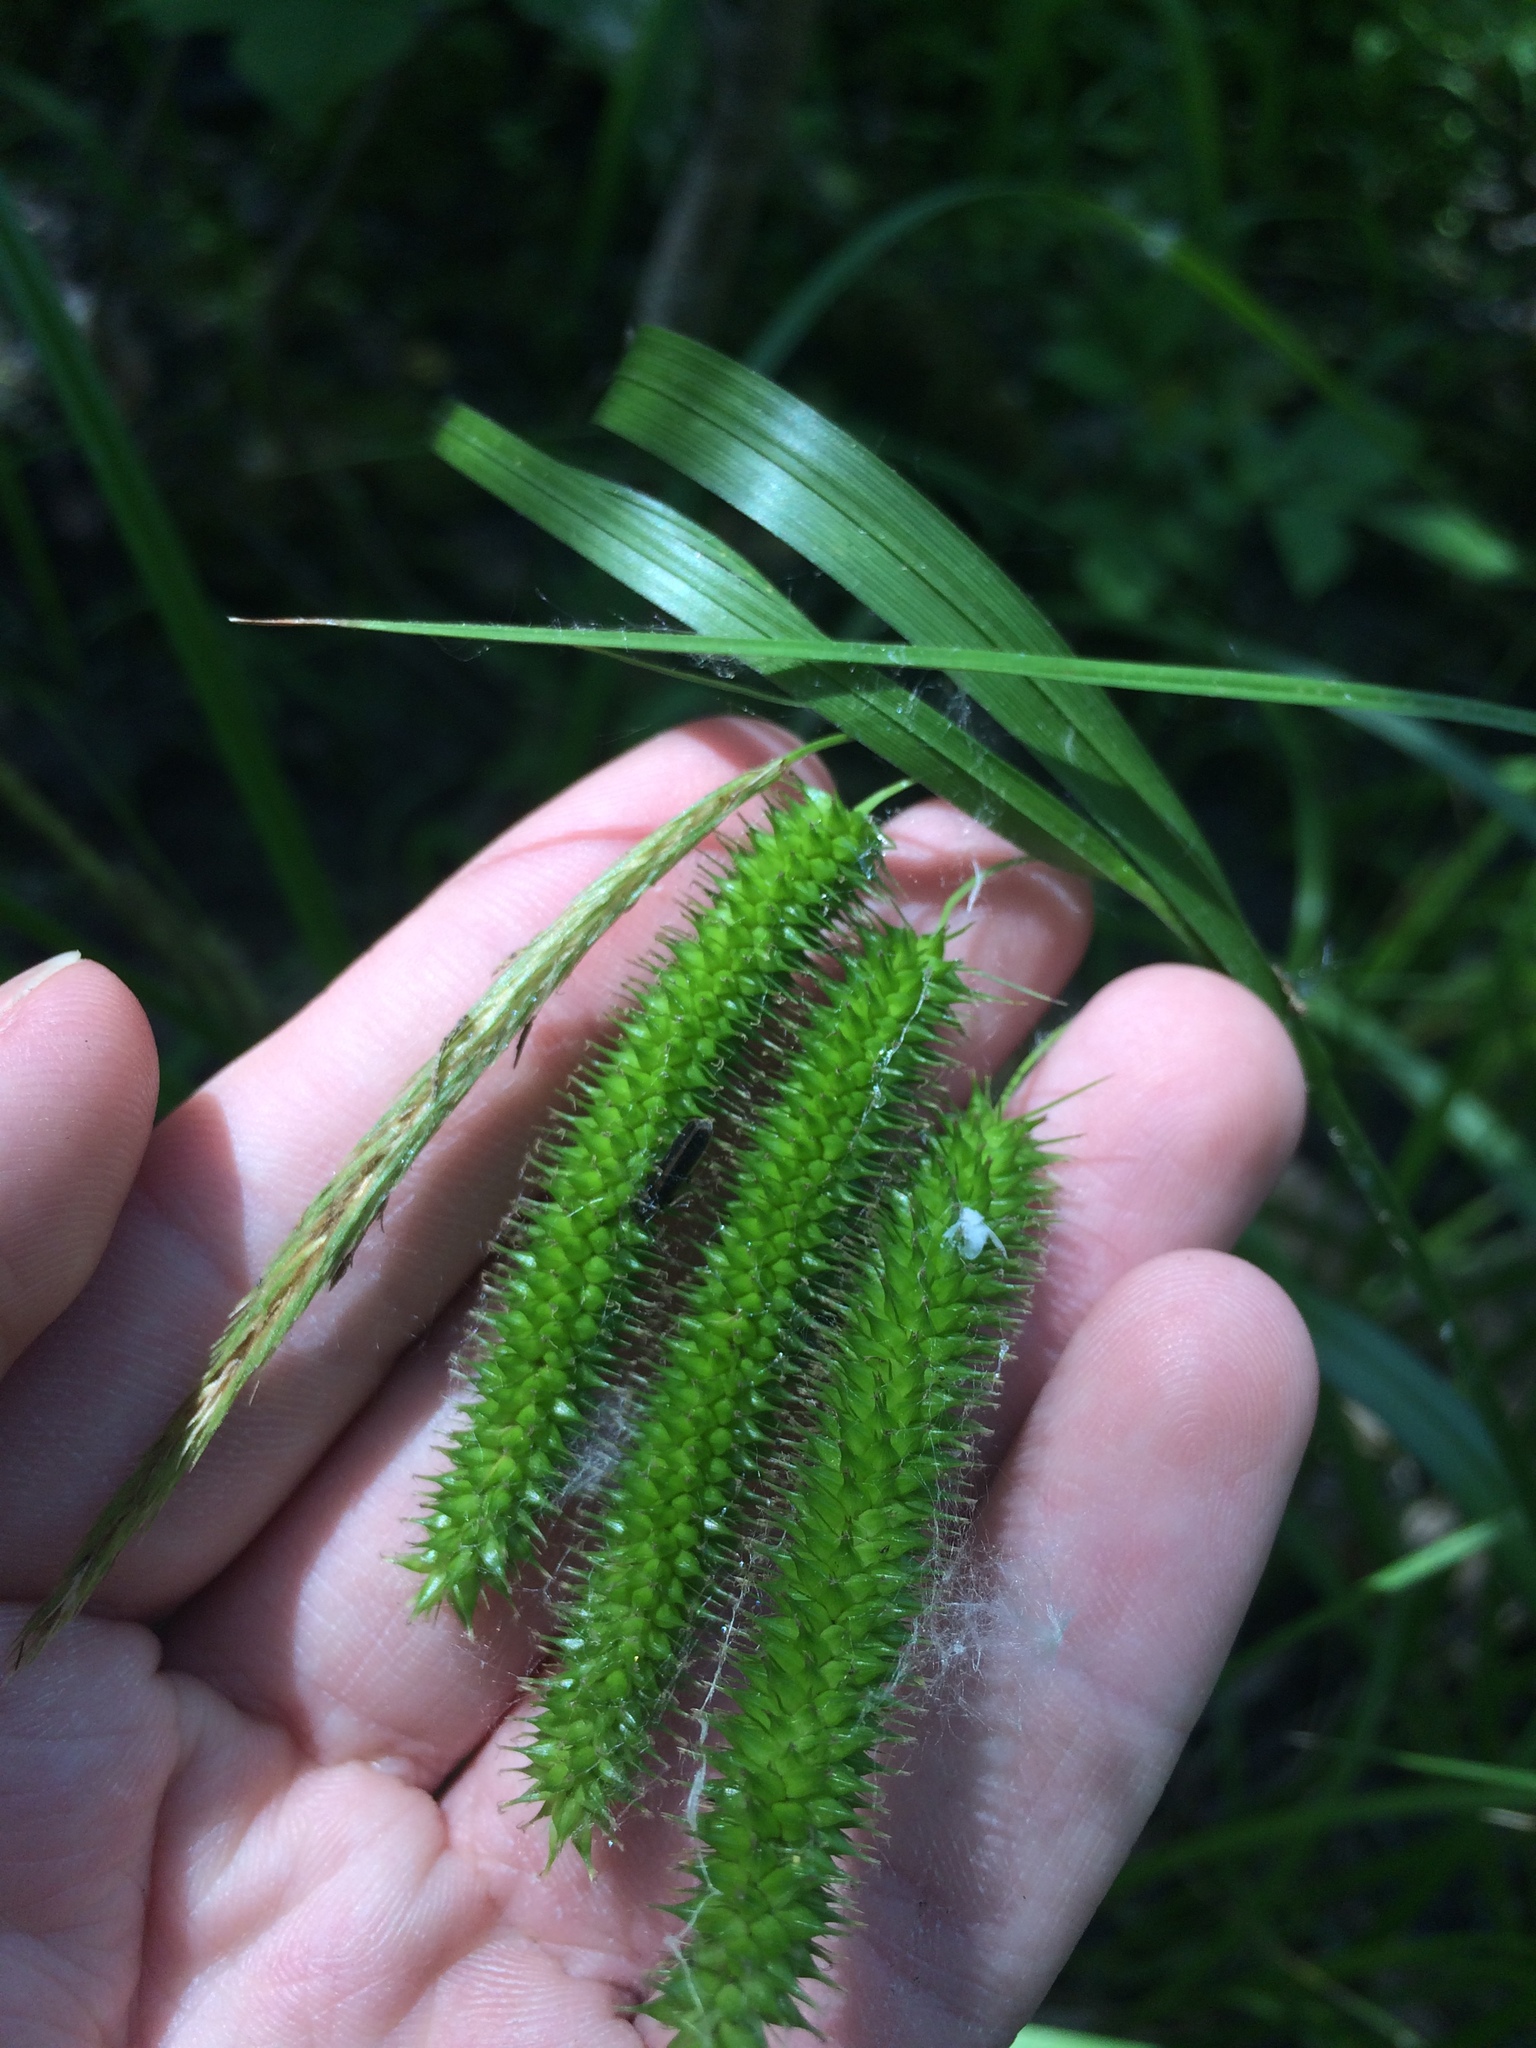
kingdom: Plantae
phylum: Tracheophyta
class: Liliopsida
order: Poales
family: Cyperaceae
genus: Carex
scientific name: Carex pseudocyperus
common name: Cyperus sedge
